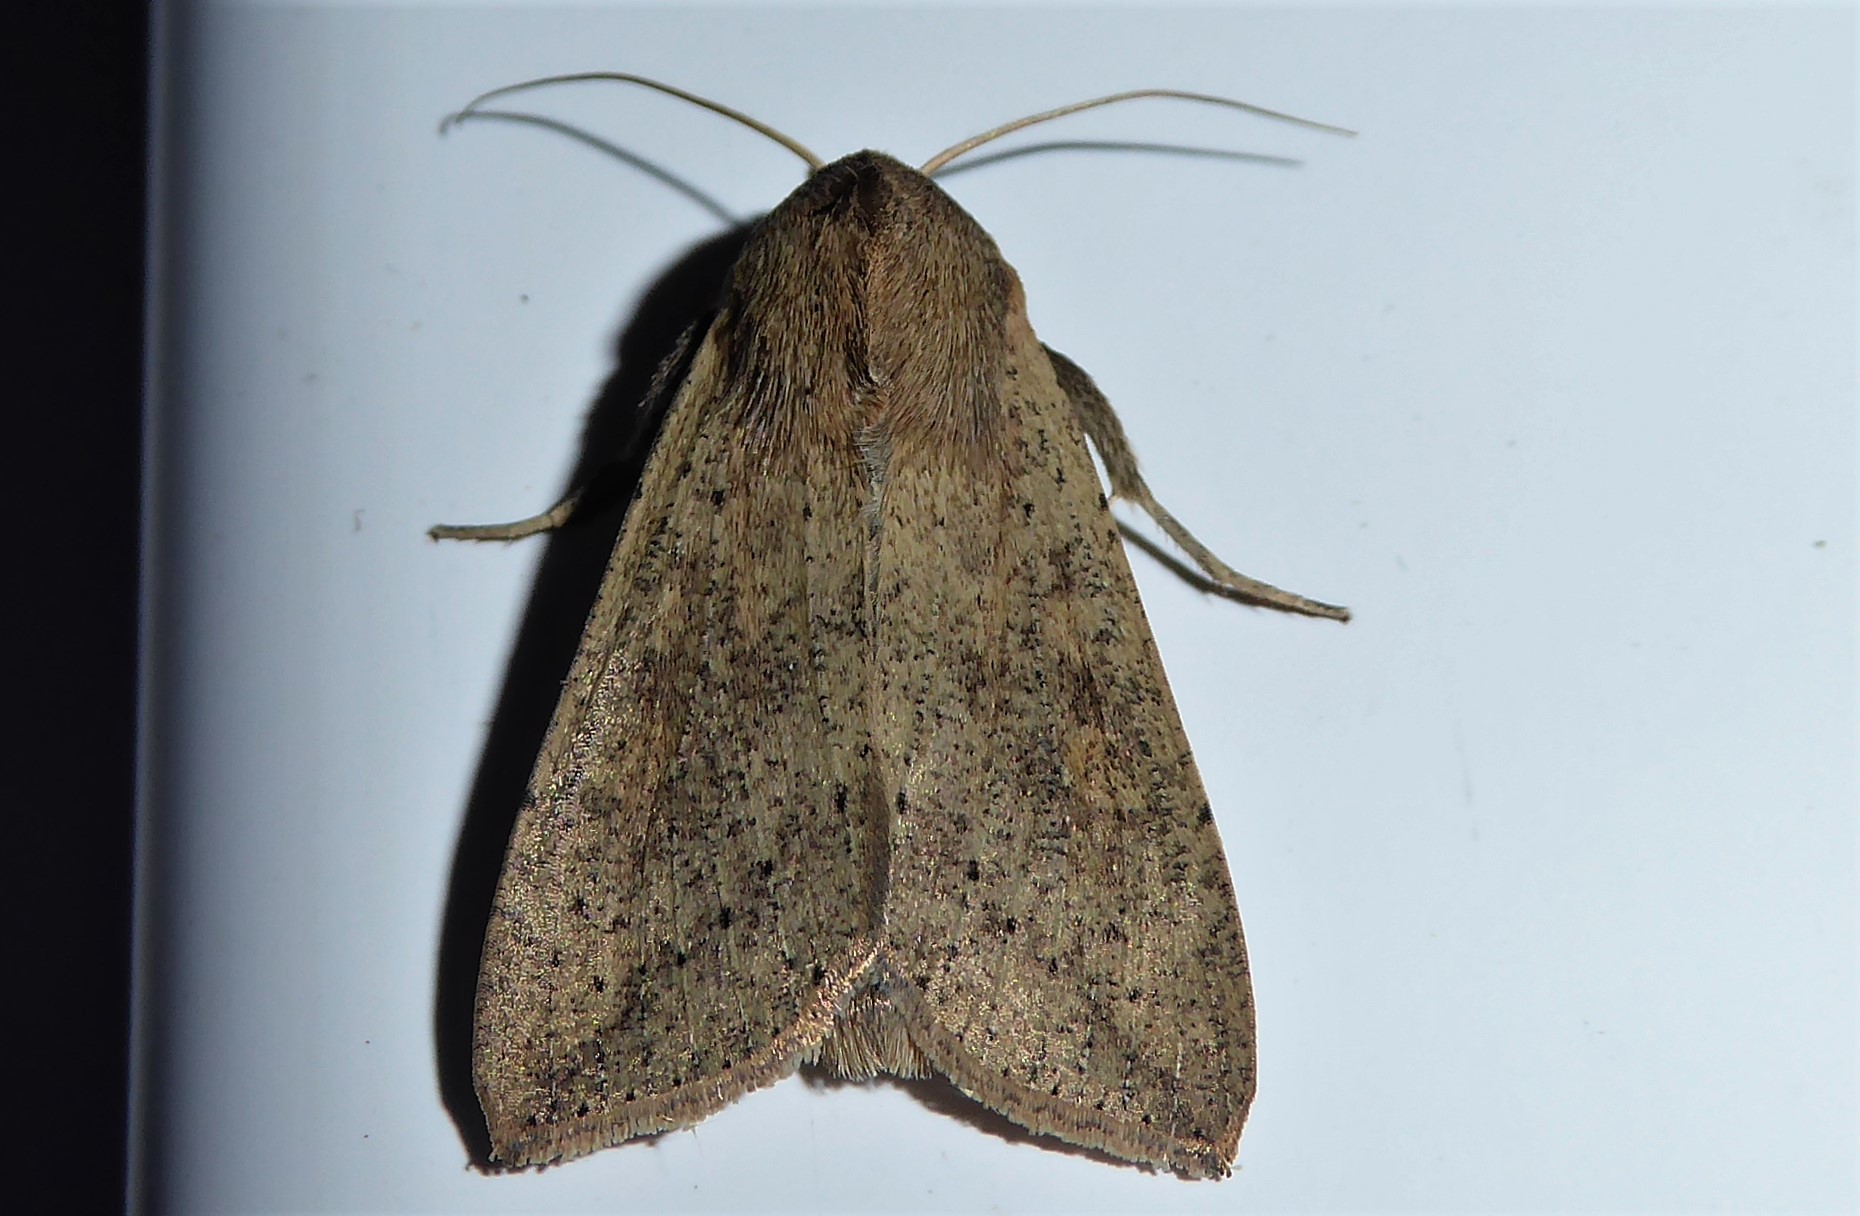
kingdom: Animalia
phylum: Arthropoda
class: Insecta
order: Lepidoptera
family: Noctuidae
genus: Mythimna
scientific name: Mythimna separata
